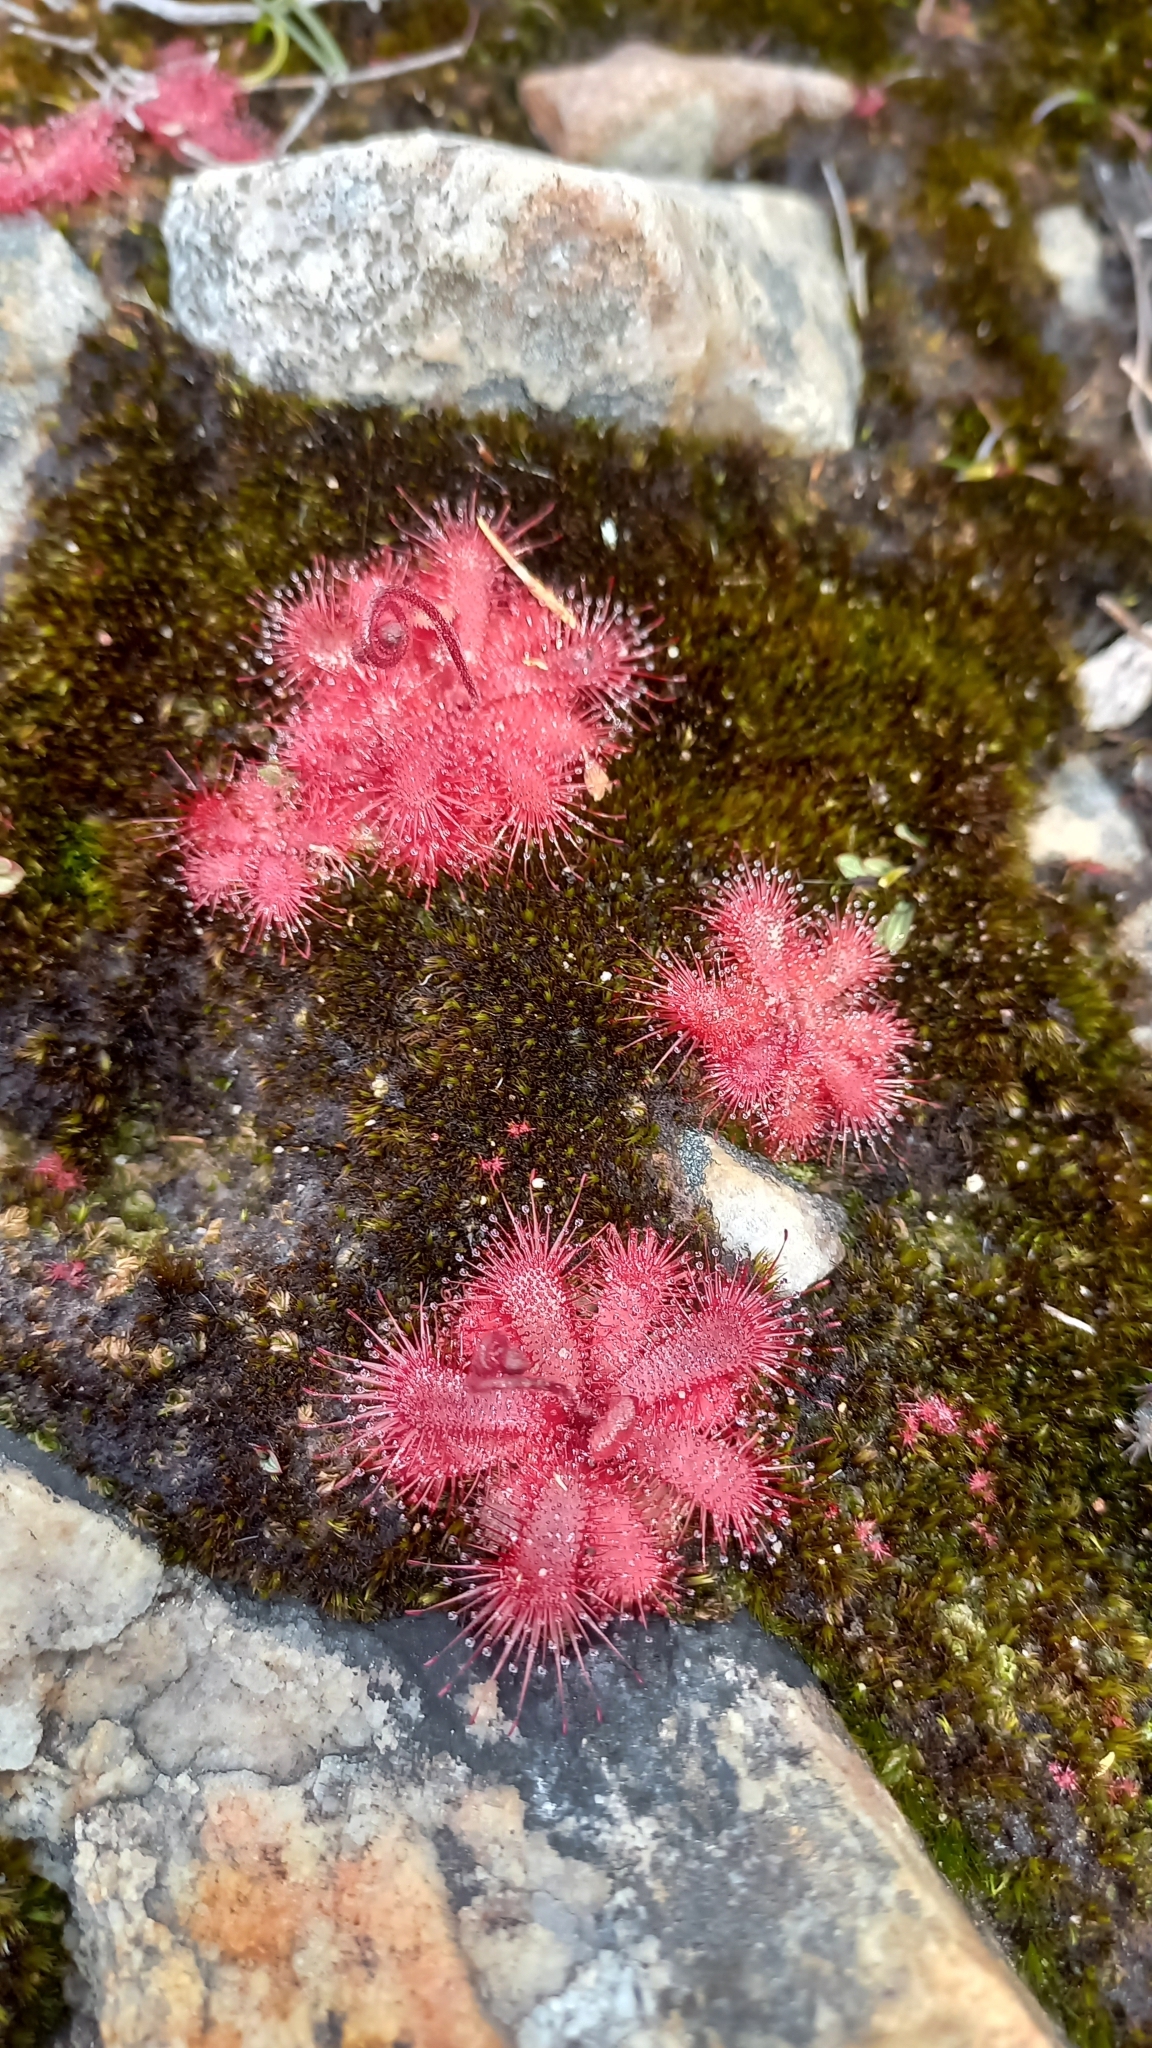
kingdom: Plantae
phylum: Tracheophyta
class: Magnoliopsida
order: Caryophyllales
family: Droseraceae
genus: Drosera
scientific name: Drosera trinervia
